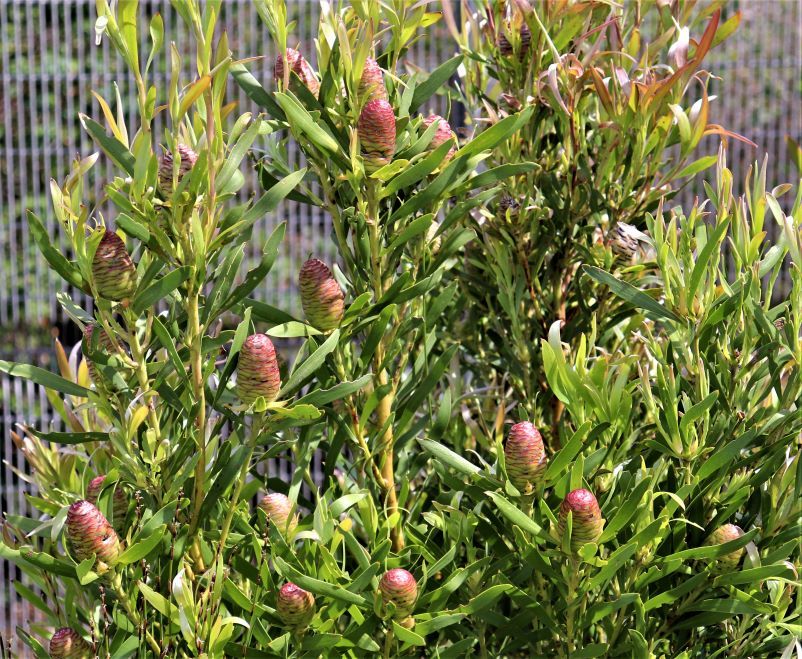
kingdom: Plantae
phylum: Tracheophyta
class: Magnoliopsida
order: Proteales
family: Proteaceae
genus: Leucadendron
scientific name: Leucadendron eucalyptifolium
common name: Gum-leaved conebush
